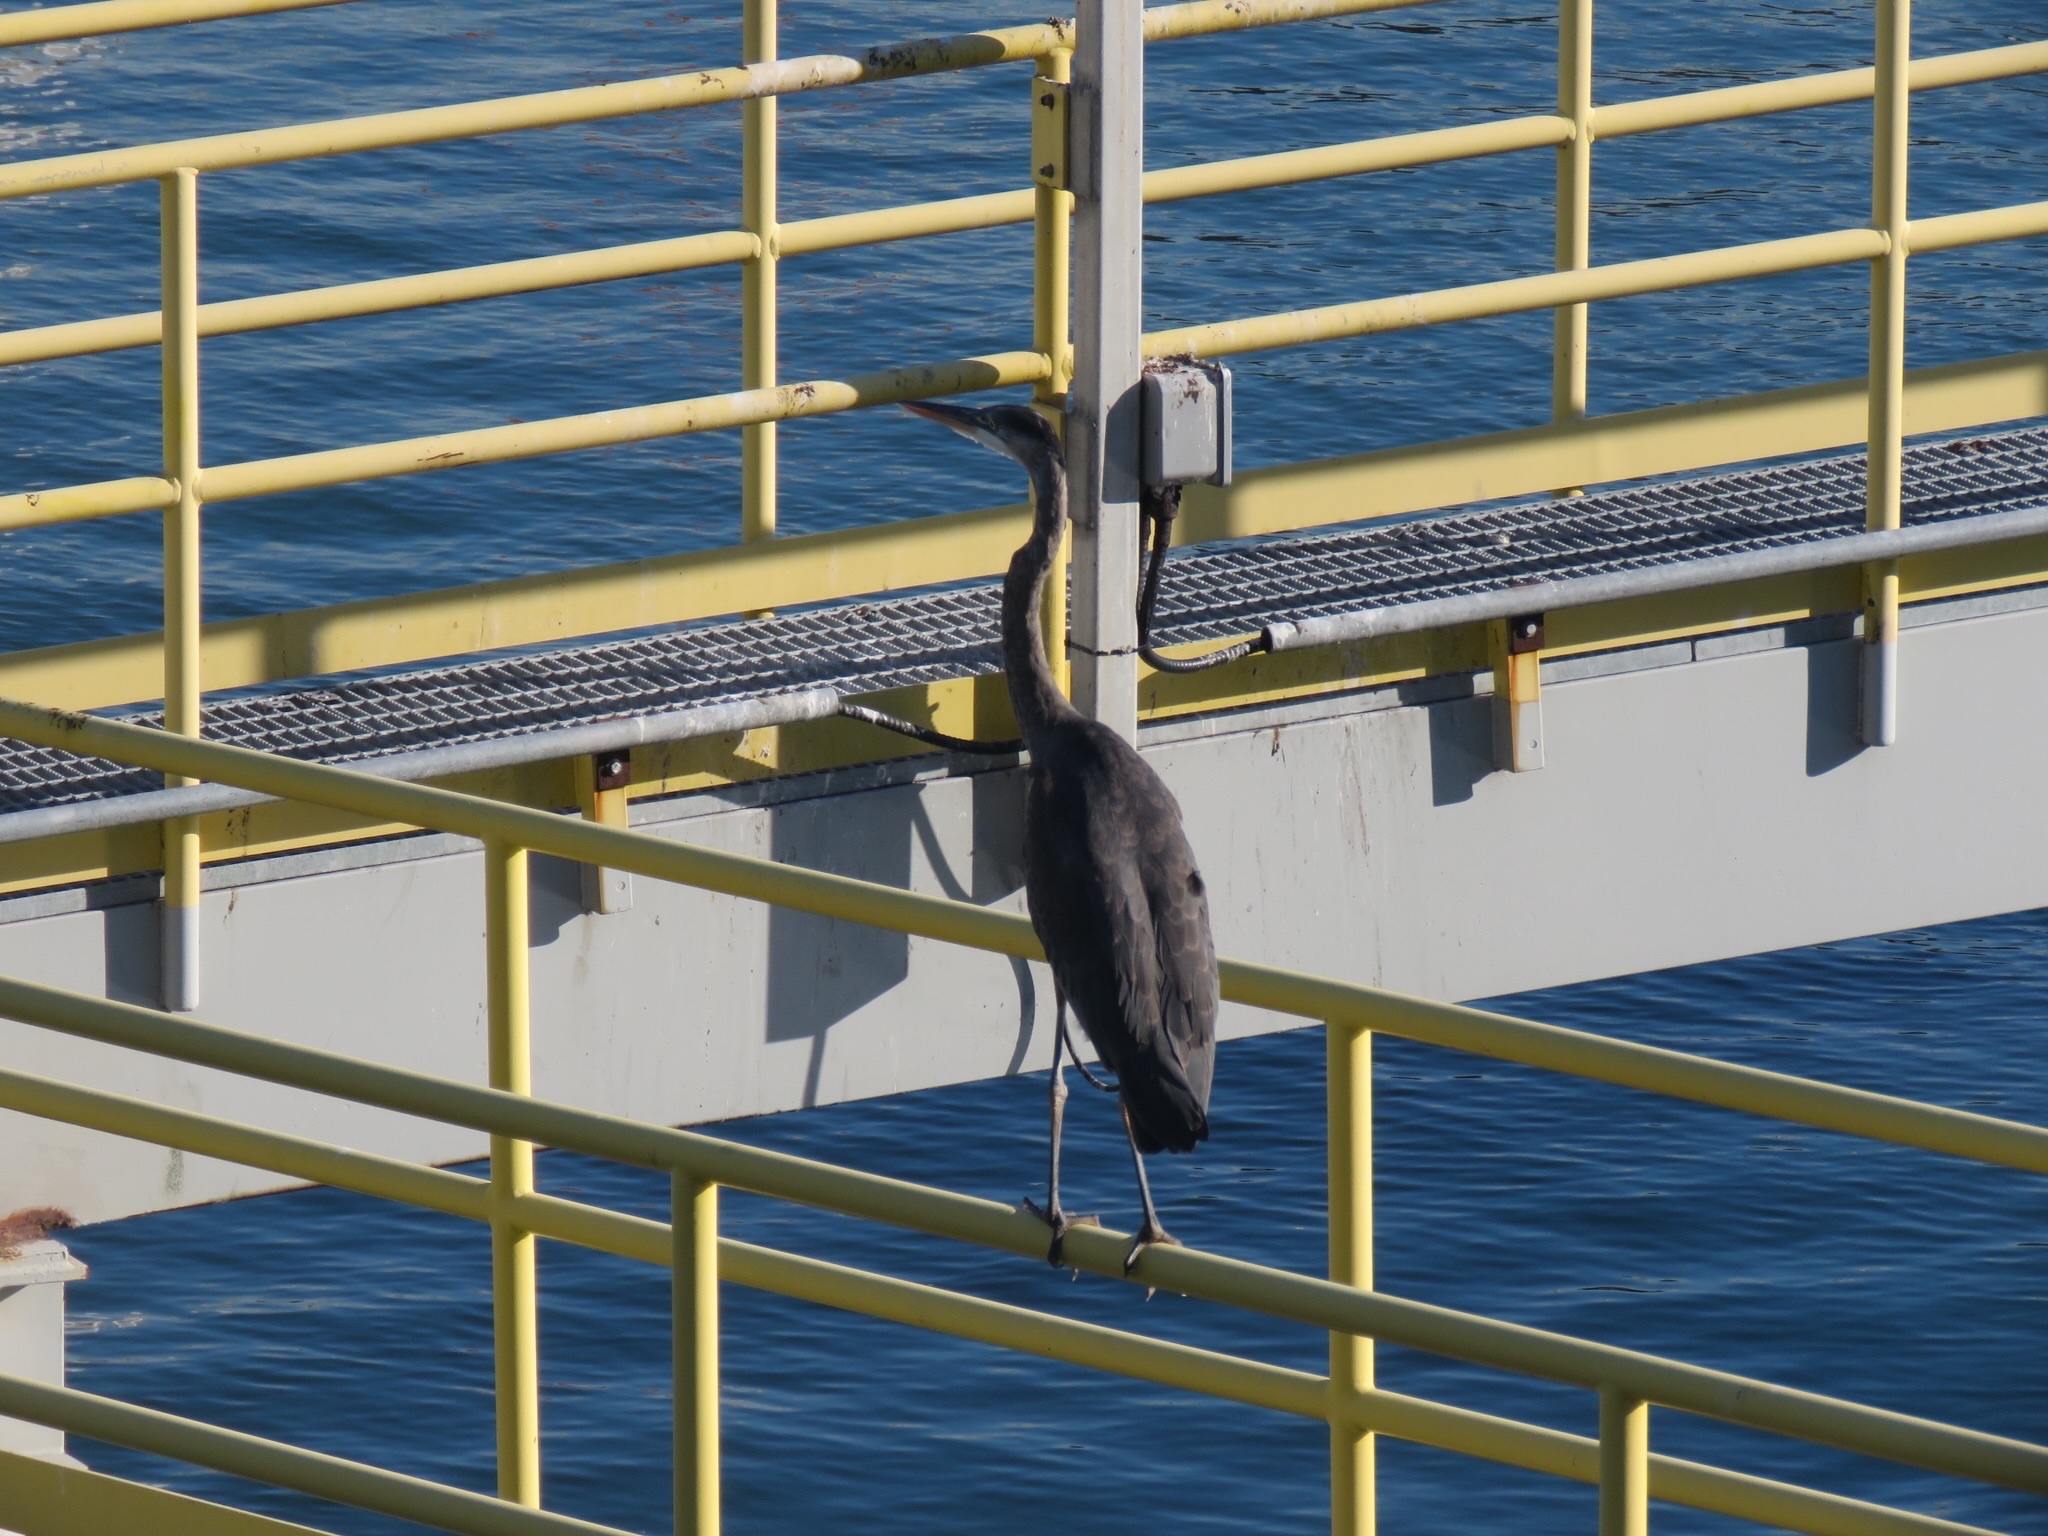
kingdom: Animalia
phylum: Chordata
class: Aves
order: Pelecaniformes
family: Ardeidae
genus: Ardea
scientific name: Ardea herodias
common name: Great blue heron
